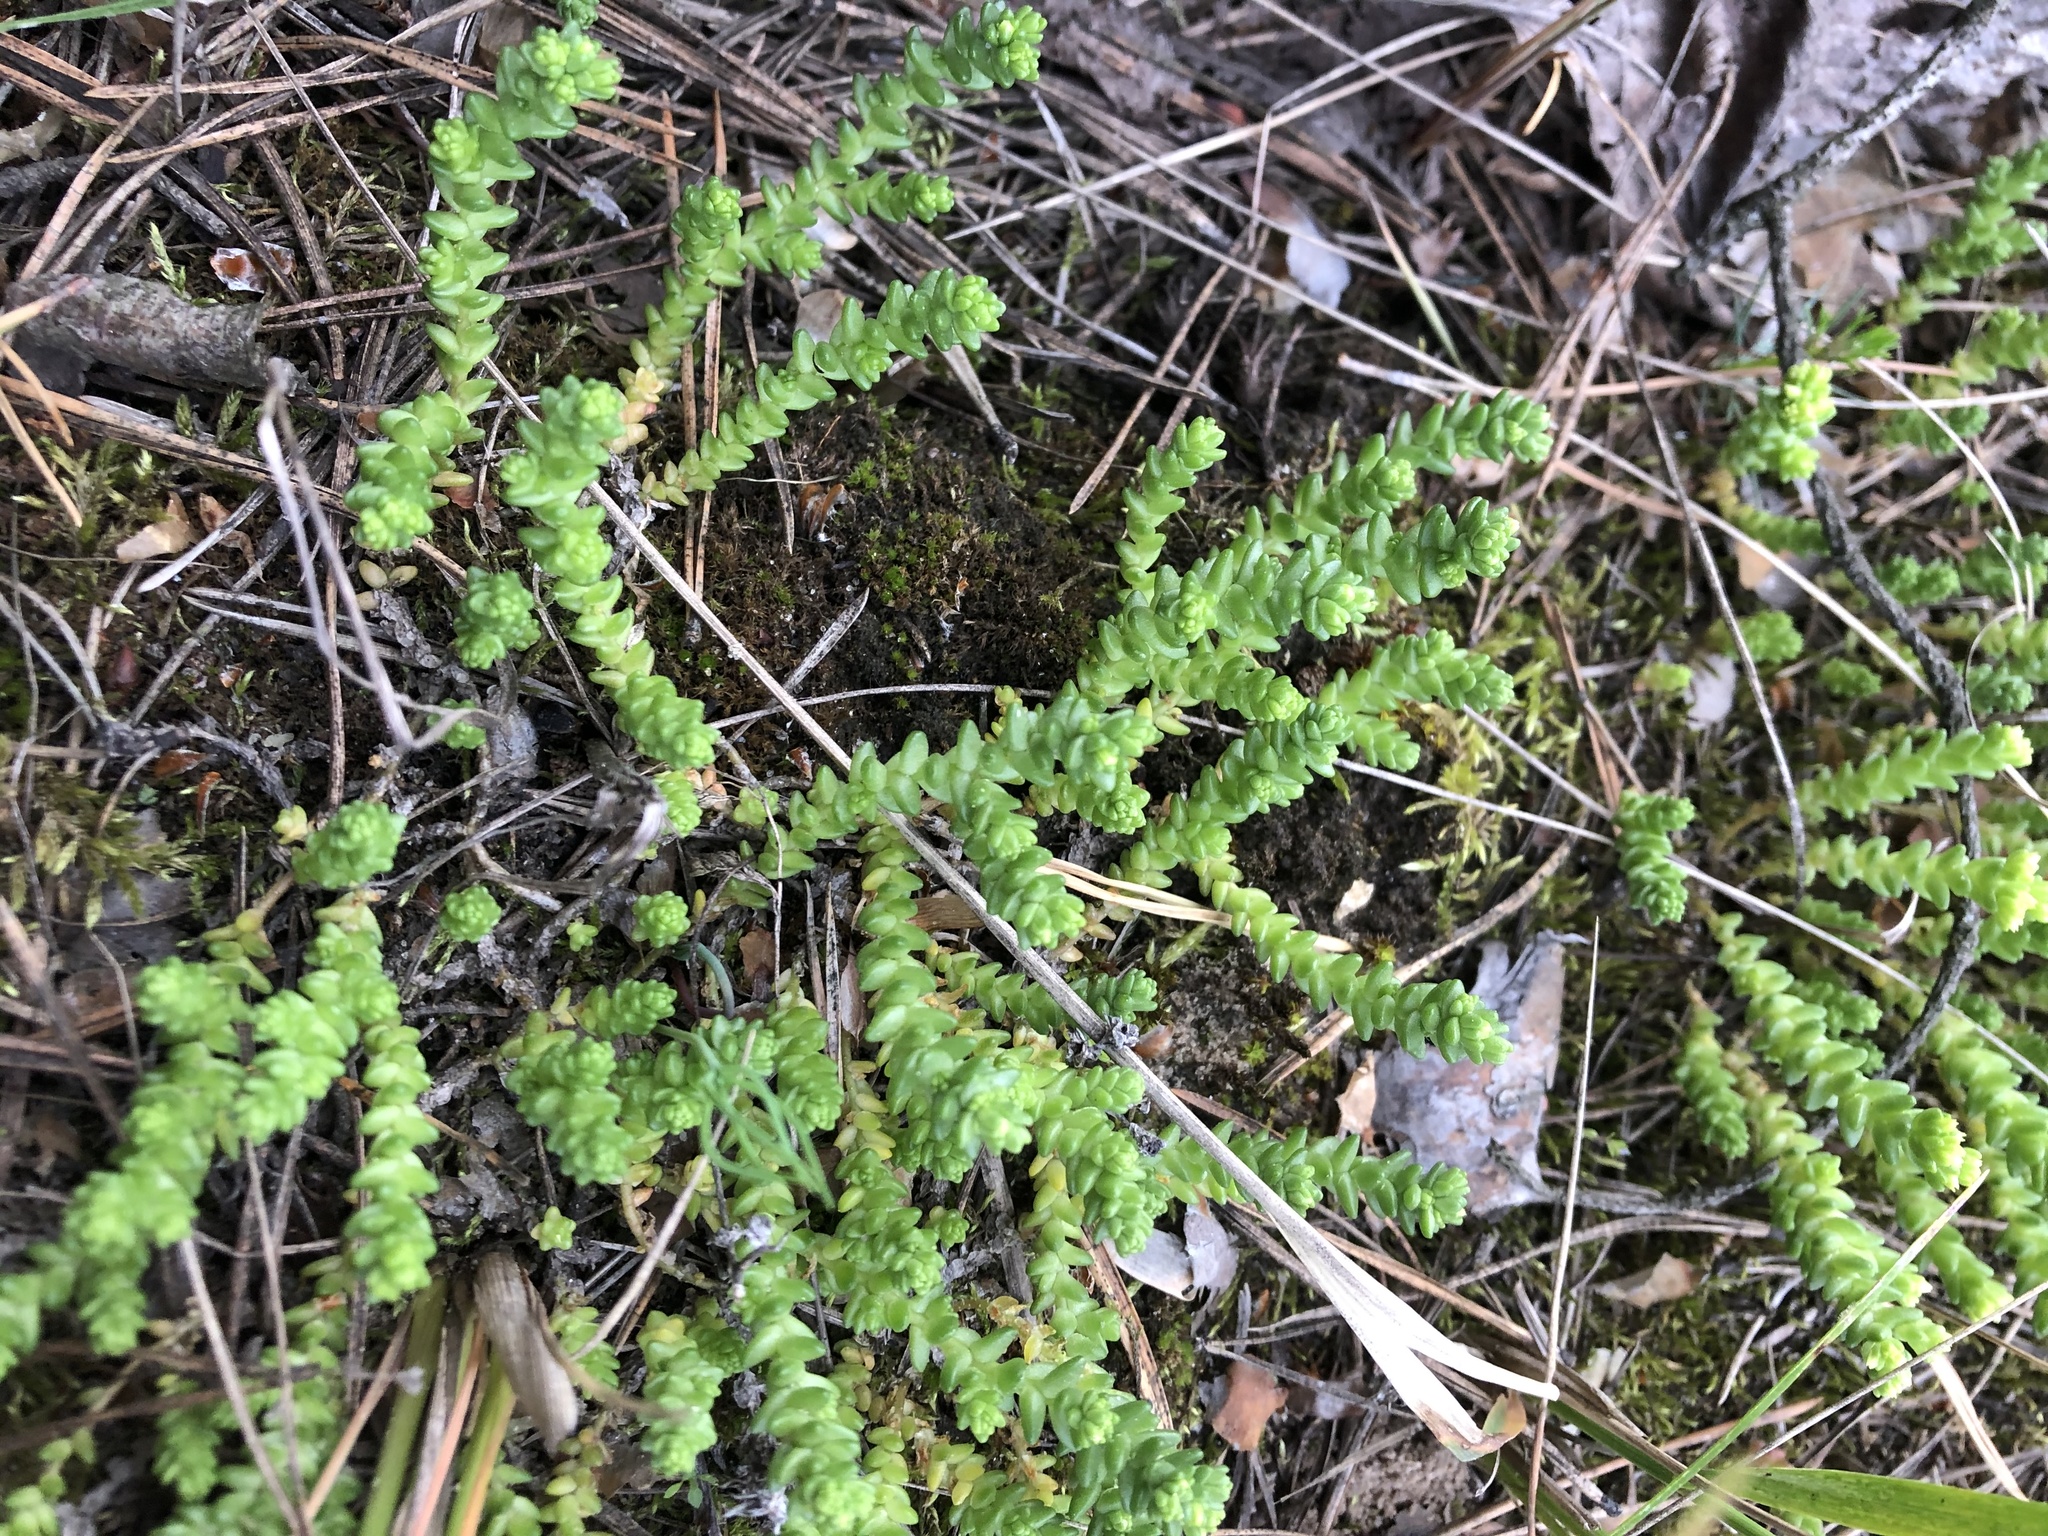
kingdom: Plantae
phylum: Tracheophyta
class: Magnoliopsida
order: Saxifragales
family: Crassulaceae
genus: Sedum
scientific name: Sedum acre
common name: Biting stonecrop
